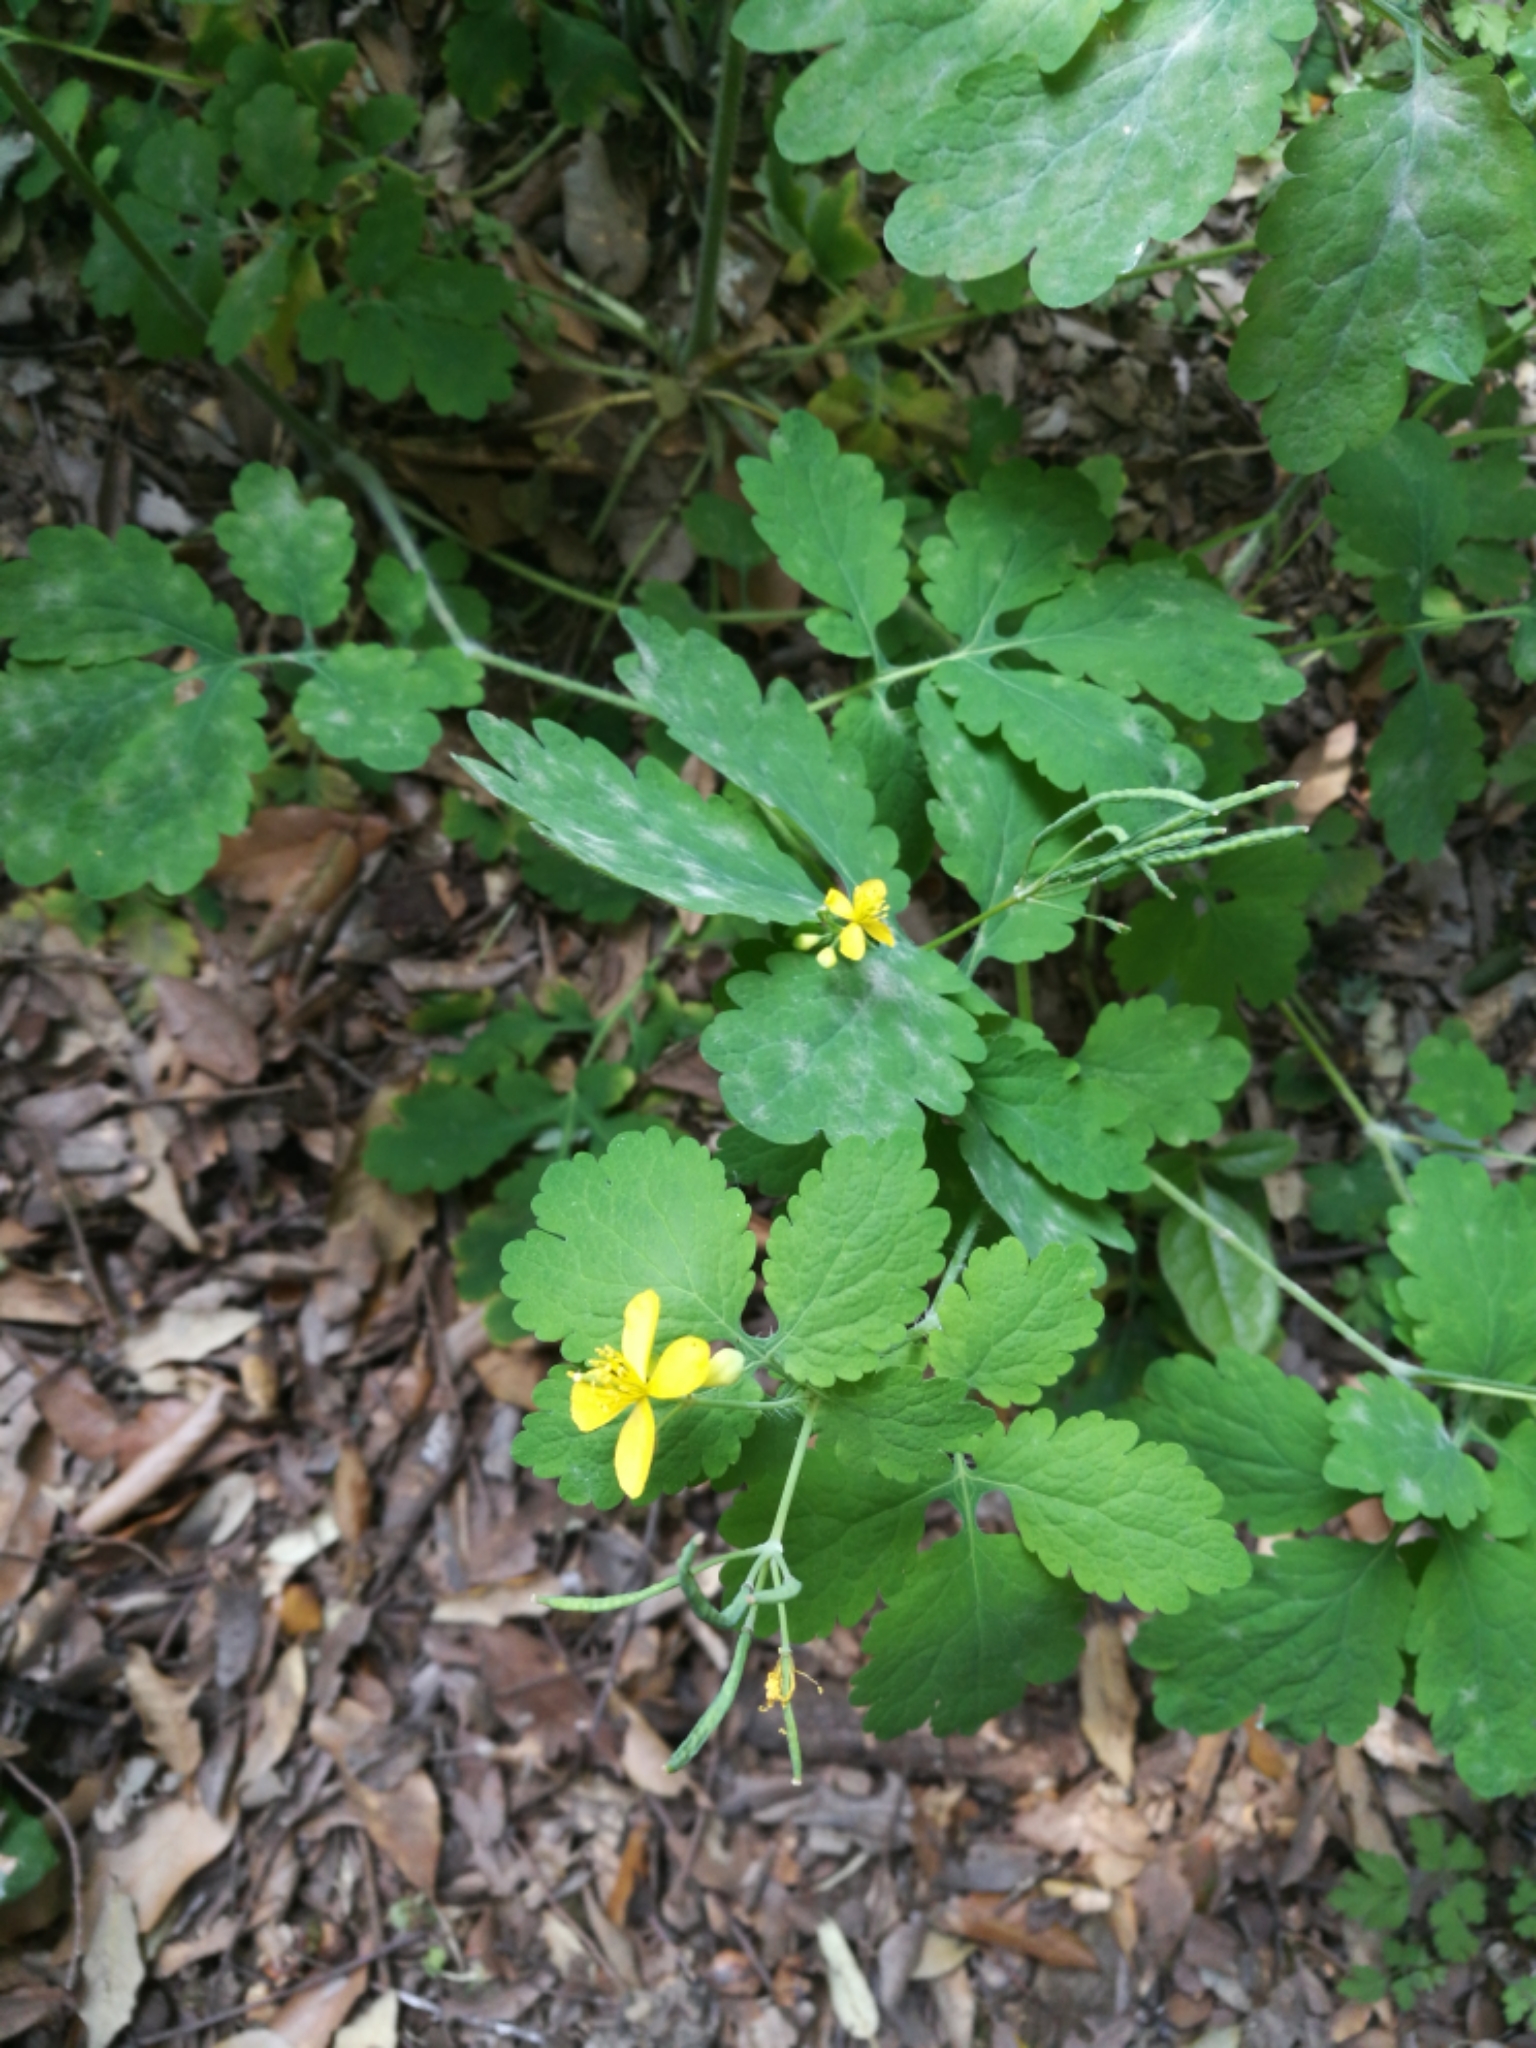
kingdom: Plantae
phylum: Tracheophyta
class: Magnoliopsida
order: Ranunculales
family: Papaveraceae
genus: Chelidonium
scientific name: Chelidonium majus
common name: Greater celandine
